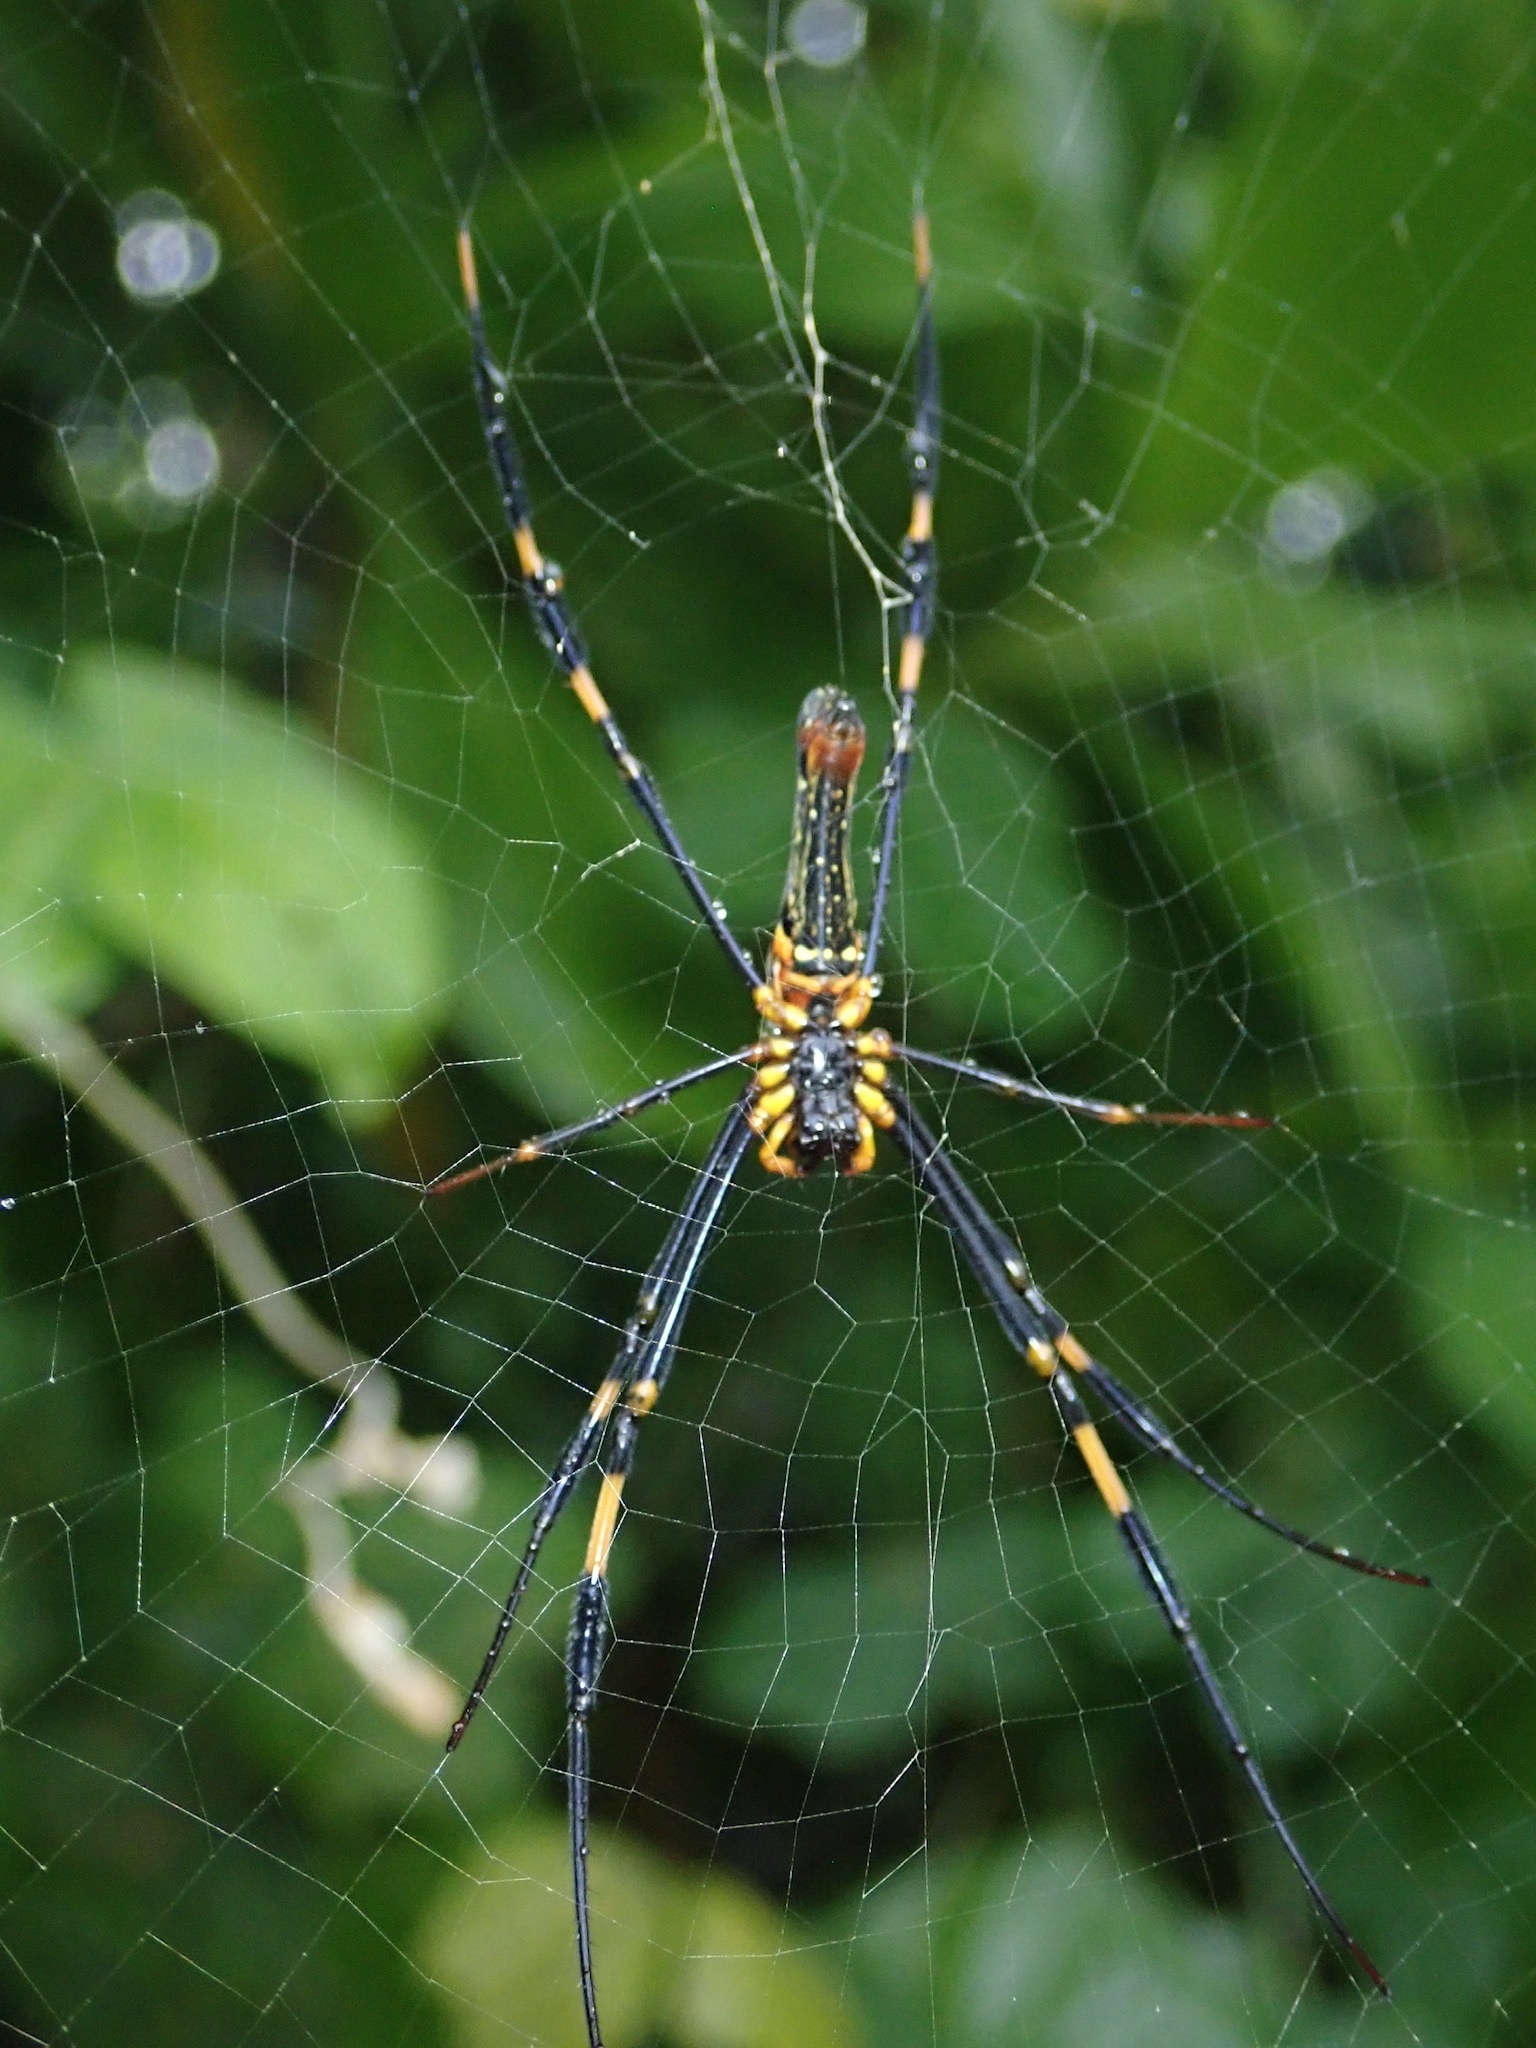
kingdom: Animalia
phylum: Arthropoda
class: Arachnida
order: Araneae
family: Araneidae
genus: Nephila
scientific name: Nephila pilipes
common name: Giant golden orb weaver
